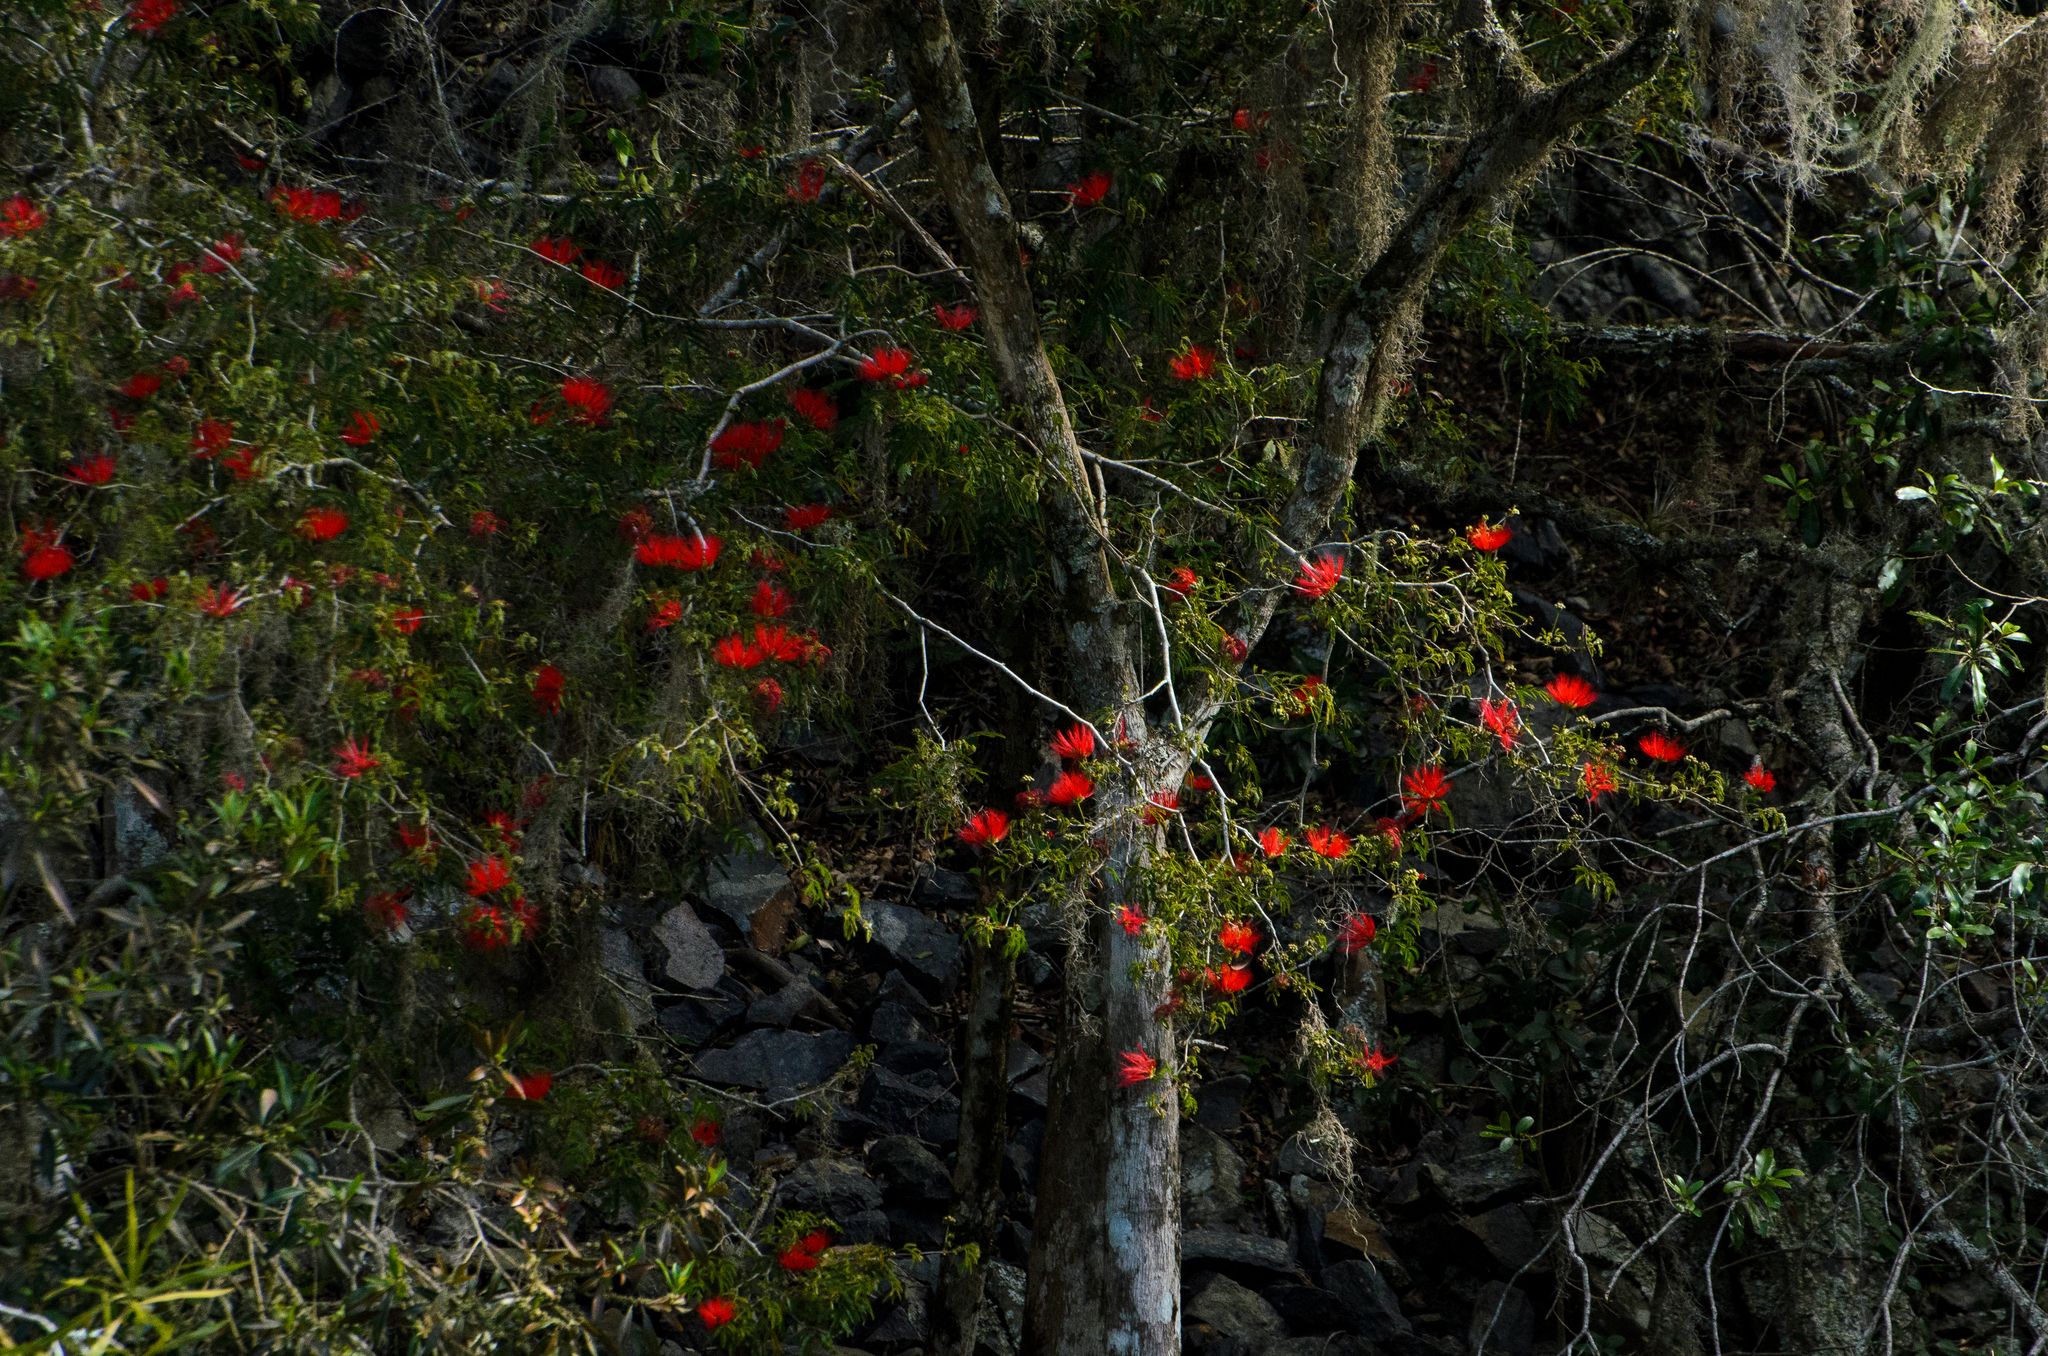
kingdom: Plantae
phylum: Tracheophyta
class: Magnoliopsida
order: Fabales
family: Fabaceae
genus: Calliandra
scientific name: Calliandra tweediei
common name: Mexican flamebush
